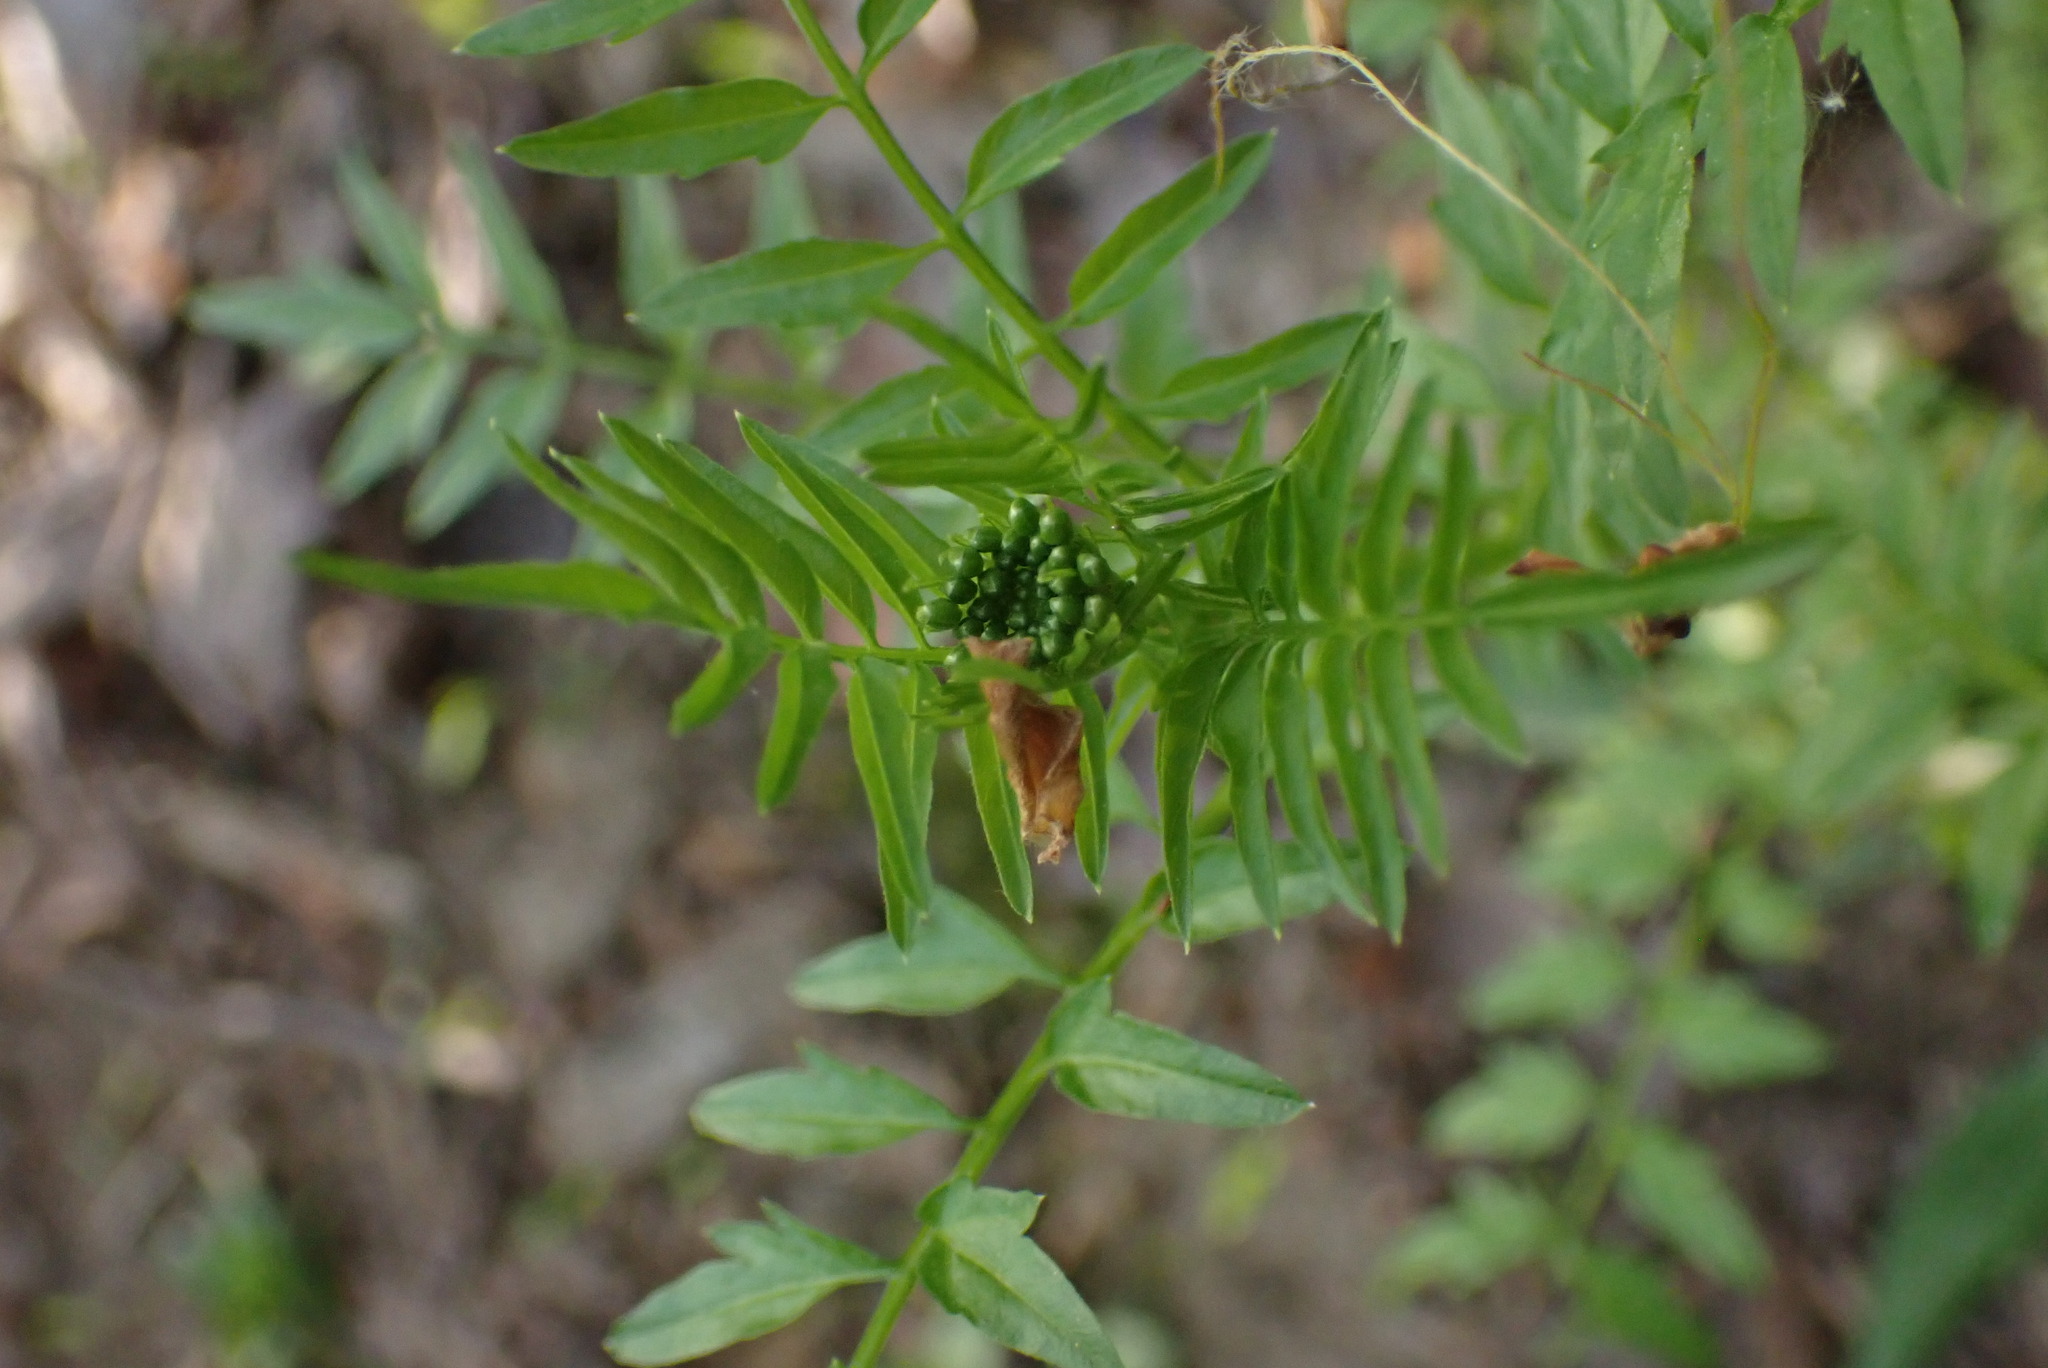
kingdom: Plantae
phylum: Tracheophyta
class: Magnoliopsida
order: Brassicales
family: Brassicaceae
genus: Cardamine
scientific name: Cardamine impatiens
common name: Narrow-leaved bitter-cress
